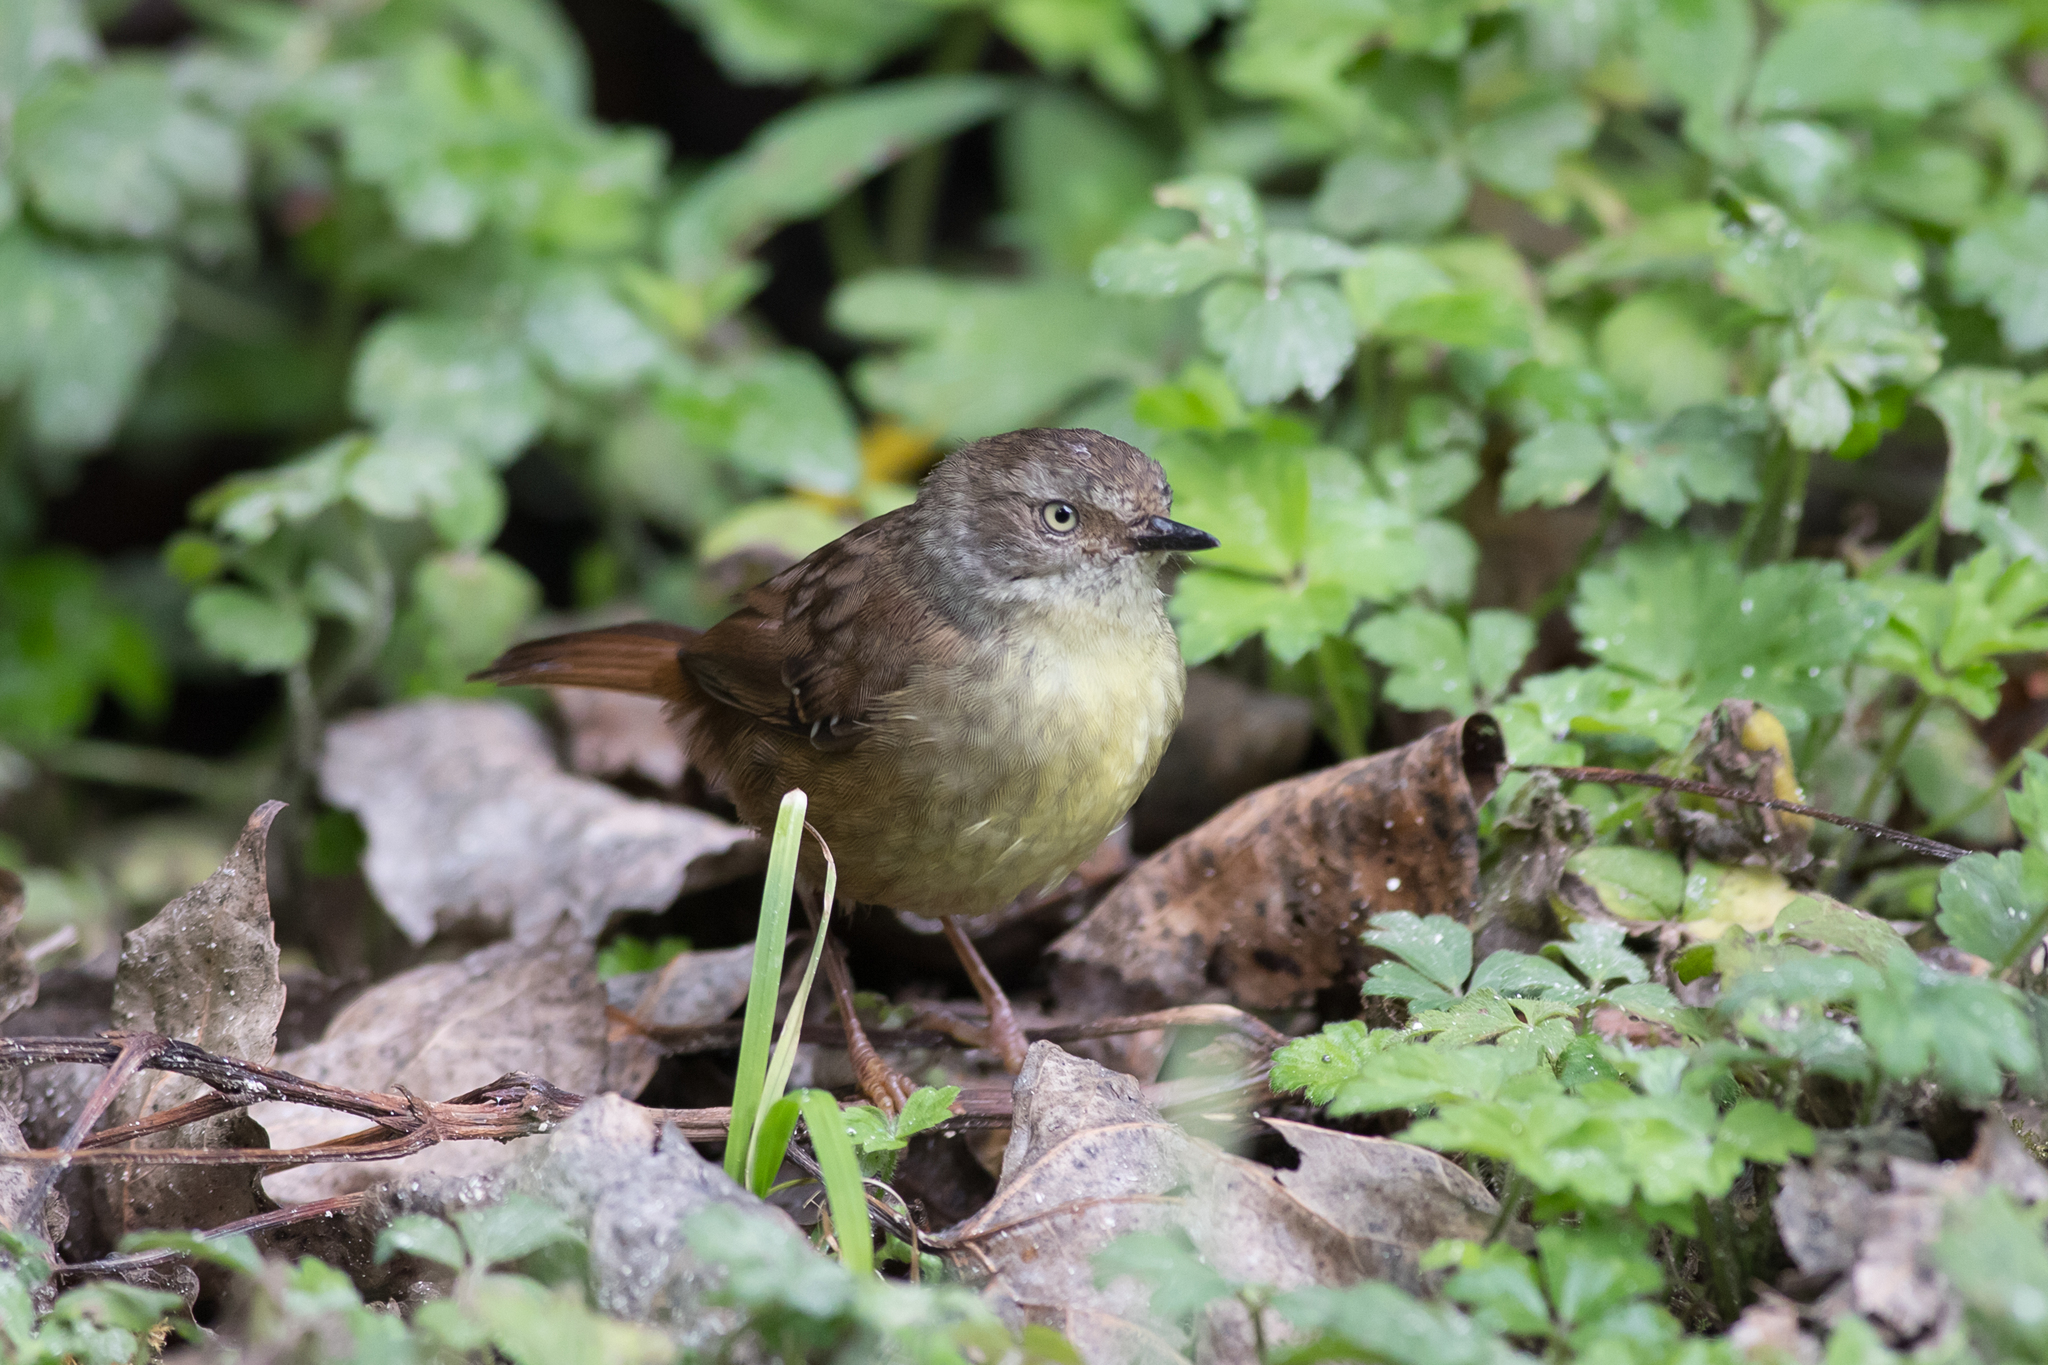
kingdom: Animalia
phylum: Chordata
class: Aves
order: Passeriformes
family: Acanthizidae
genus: Sericornis
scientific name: Sericornis frontalis
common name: White-browed scrubwren
